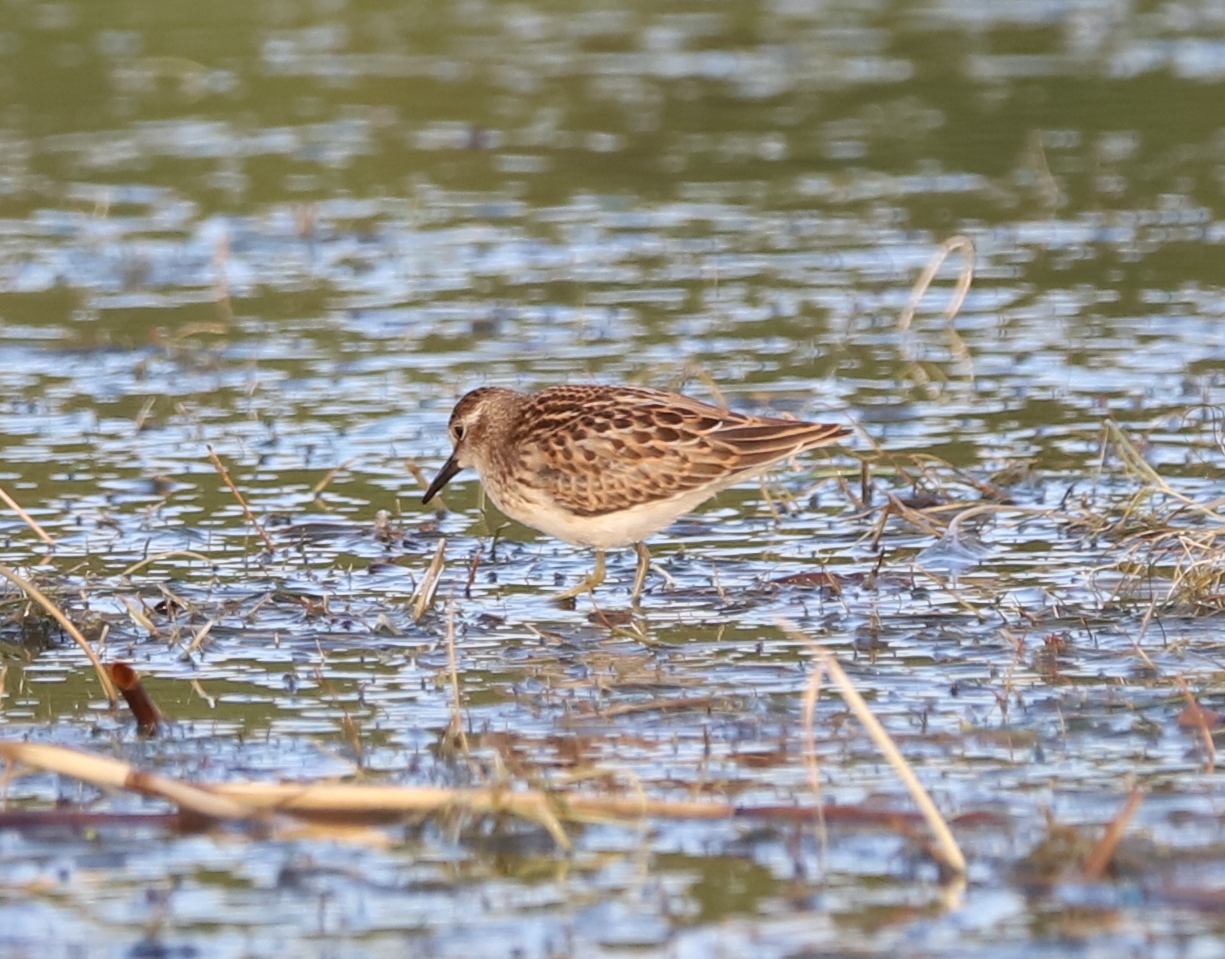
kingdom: Animalia
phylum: Chordata
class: Aves
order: Charadriiformes
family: Scolopacidae
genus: Calidris
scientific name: Calidris minutilla
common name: Least sandpiper
